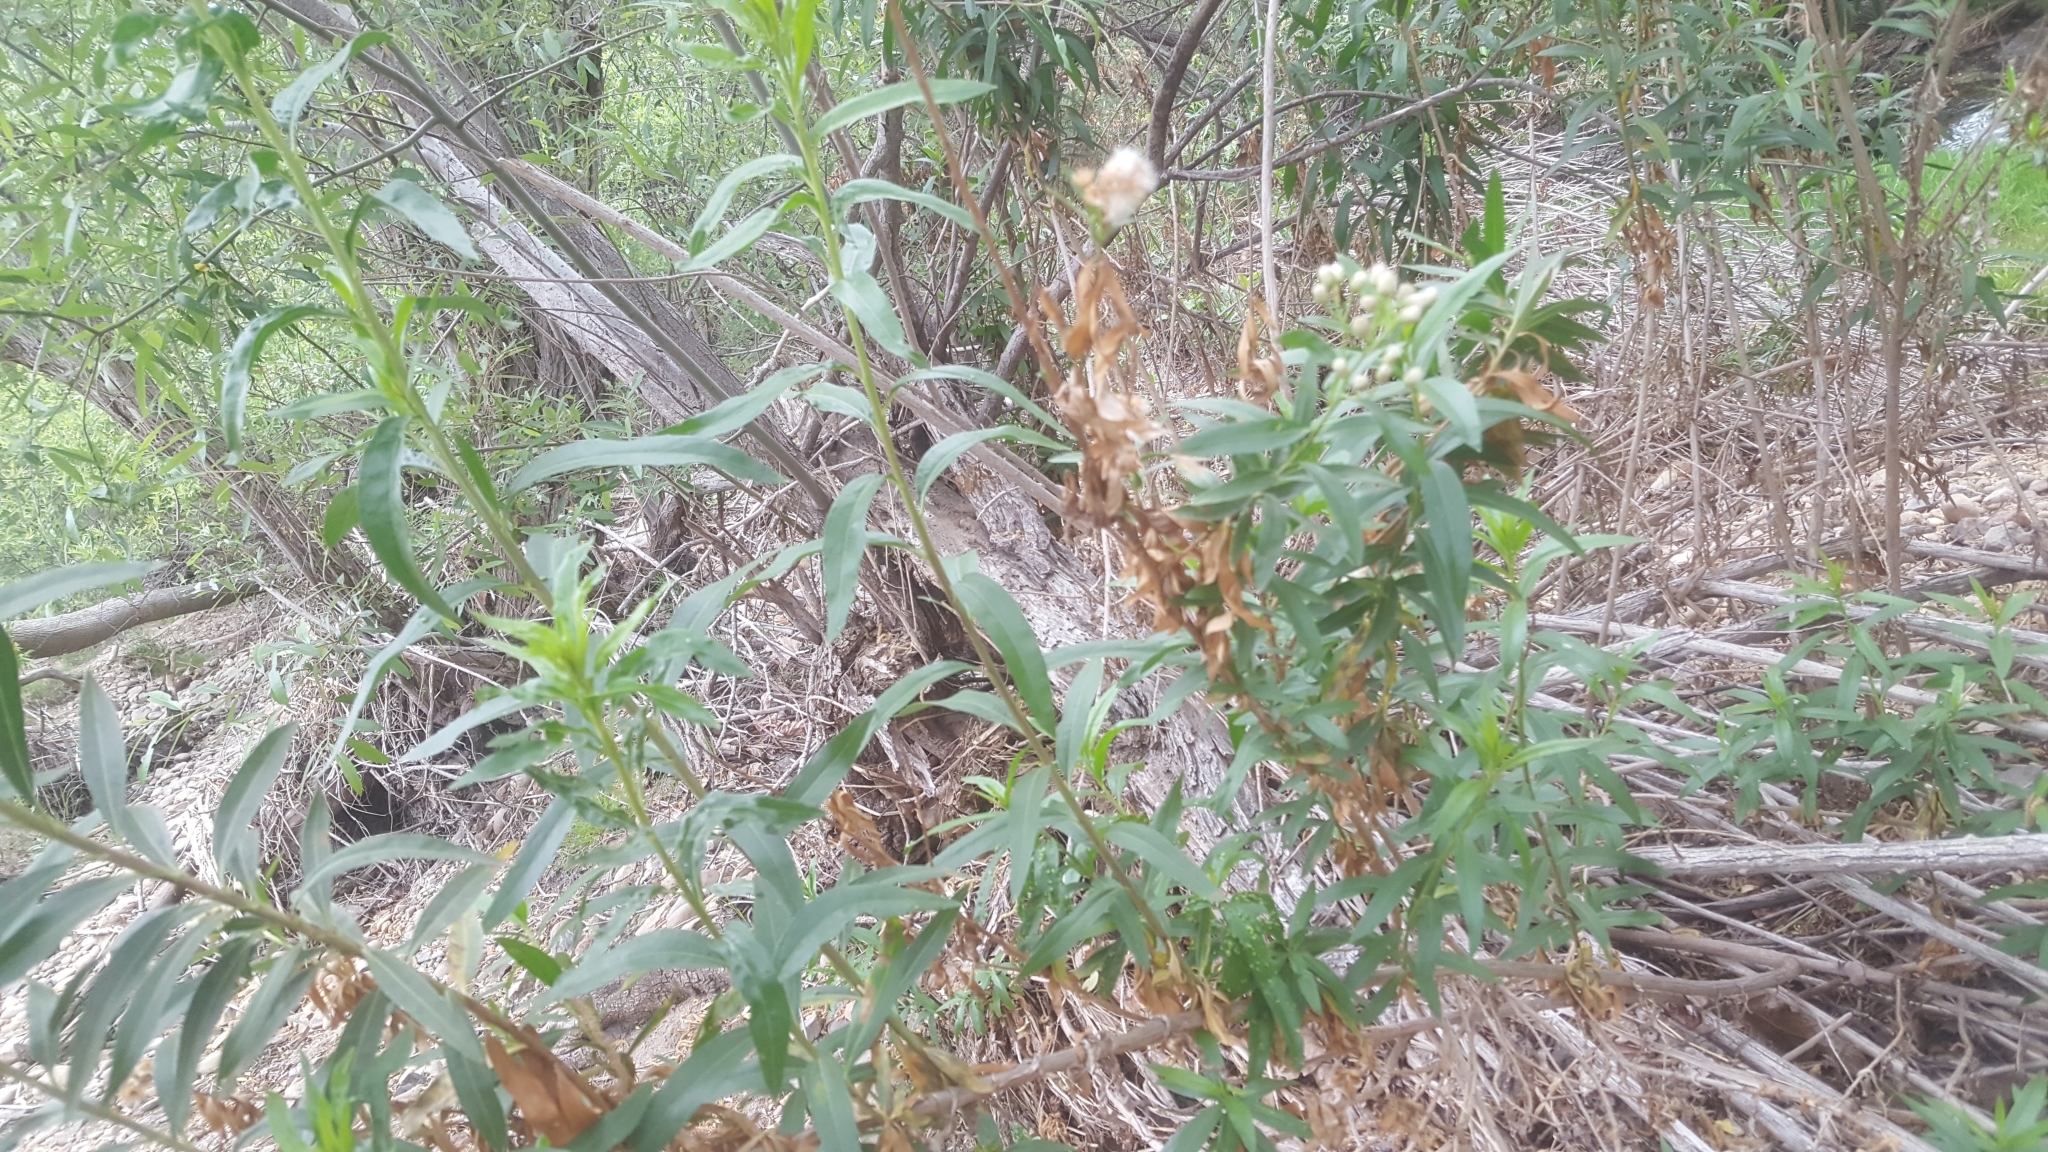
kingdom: Plantae
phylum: Tracheophyta
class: Magnoliopsida
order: Asterales
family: Asteraceae
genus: Baccharis
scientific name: Baccharis salicifolia
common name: Sticky baccharis
